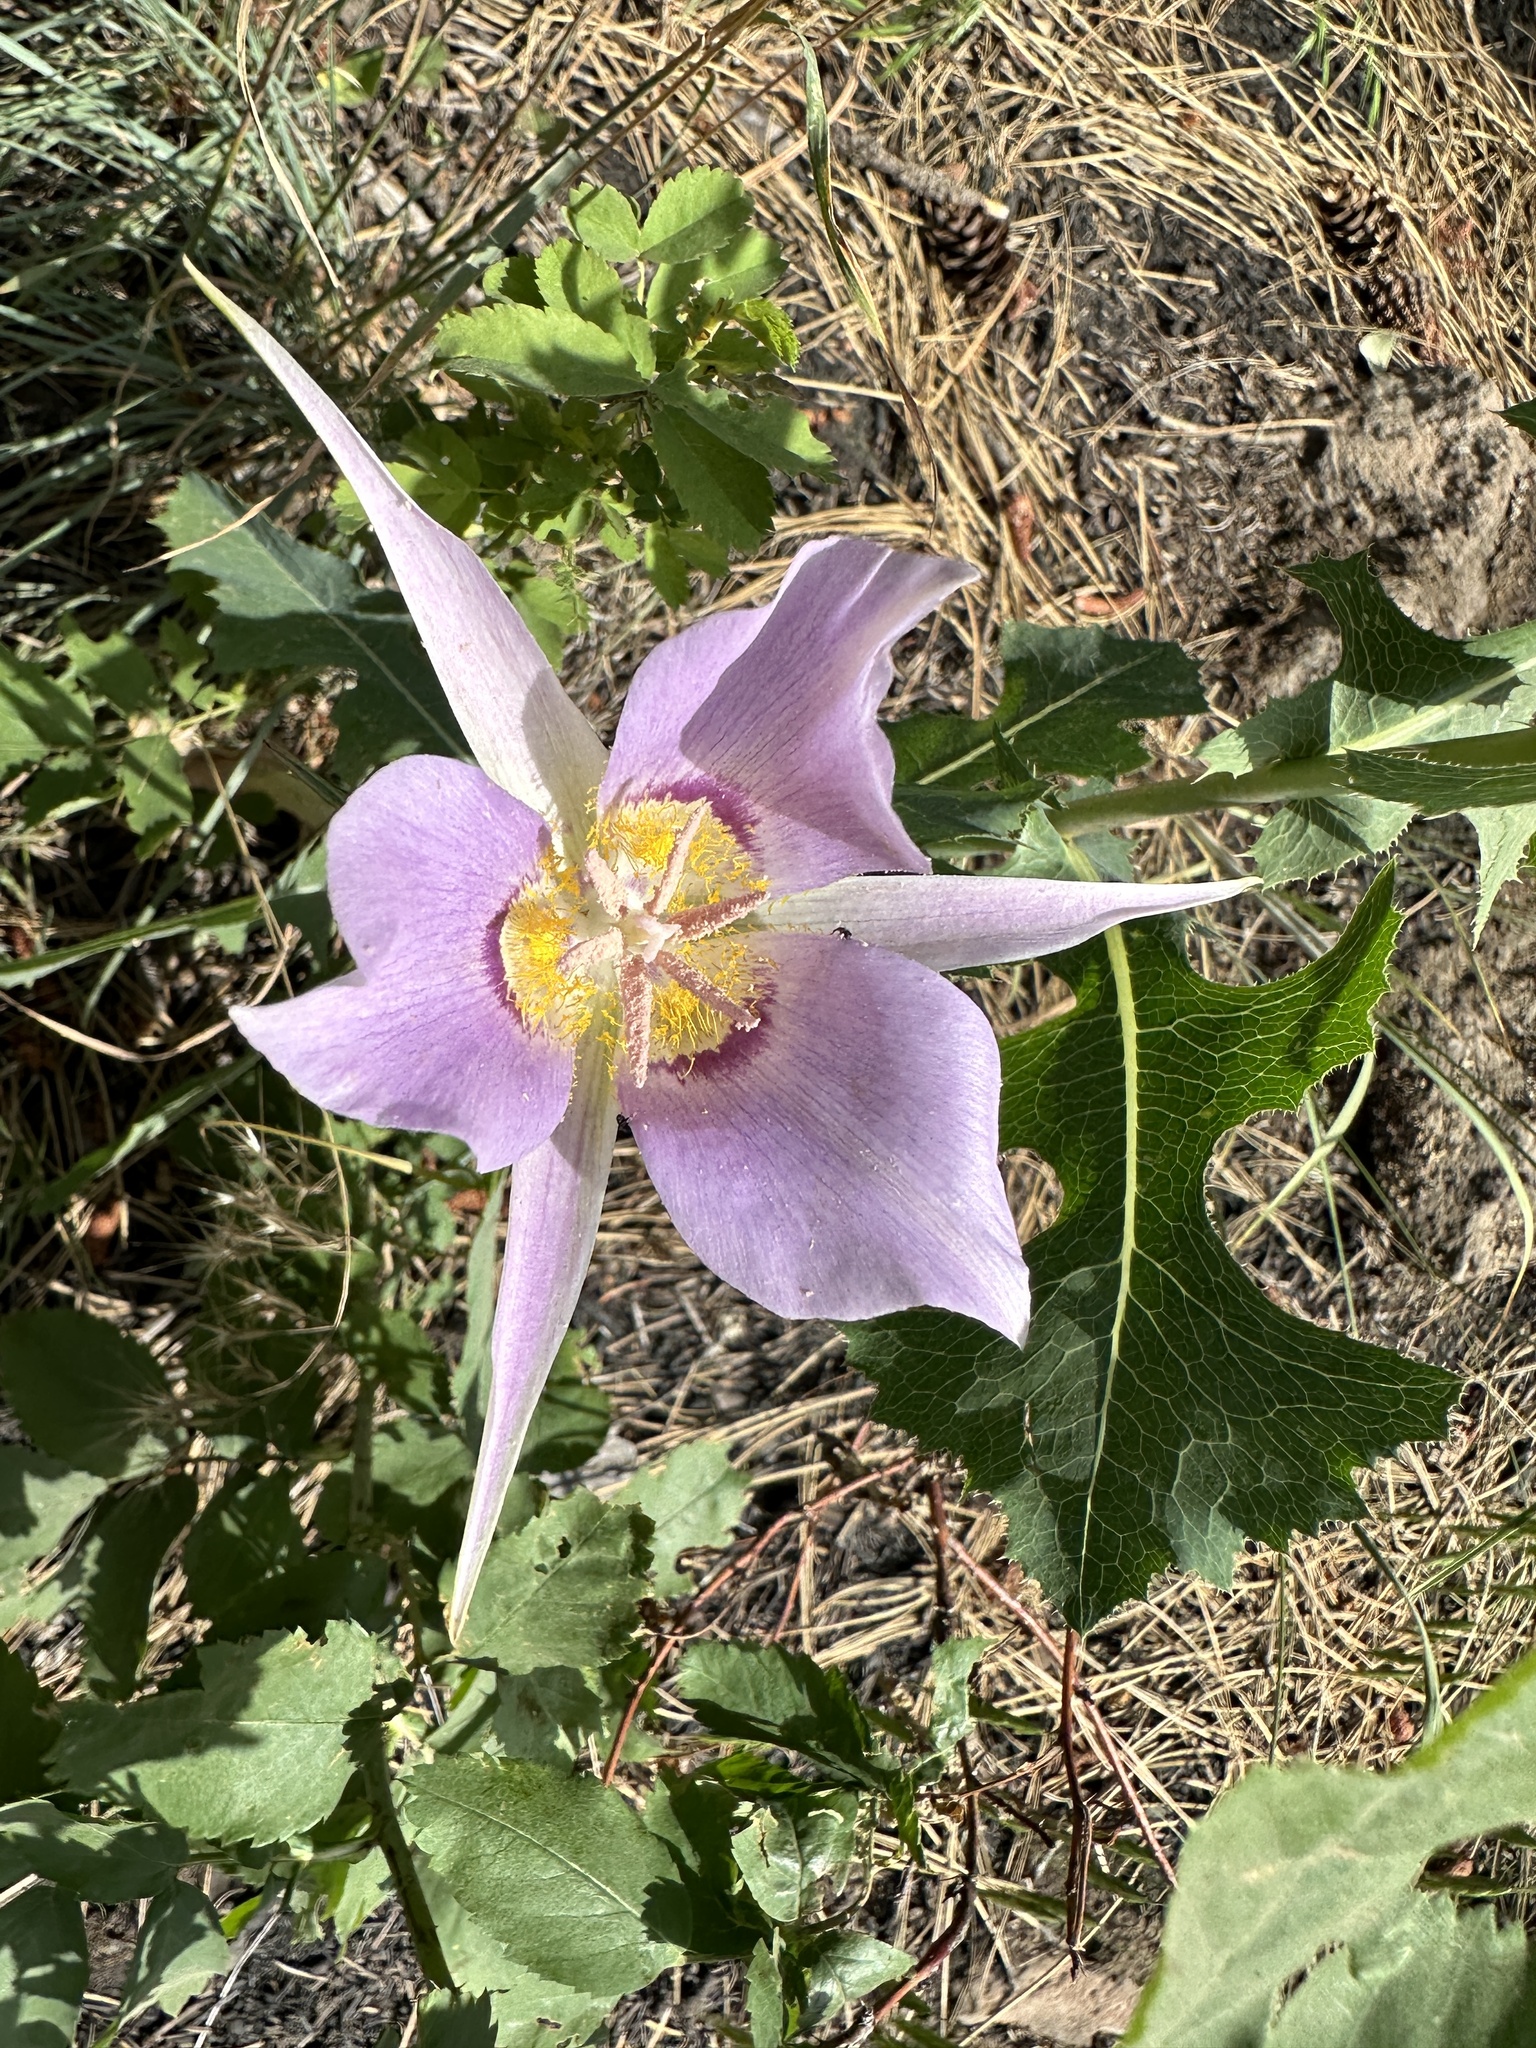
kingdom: Plantae
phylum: Tracheophyta
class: Liliopsida
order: Liliales
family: Liliaceae
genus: Calochortus
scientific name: Calochortus macrocarpus
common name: Green-band mariposa lily
